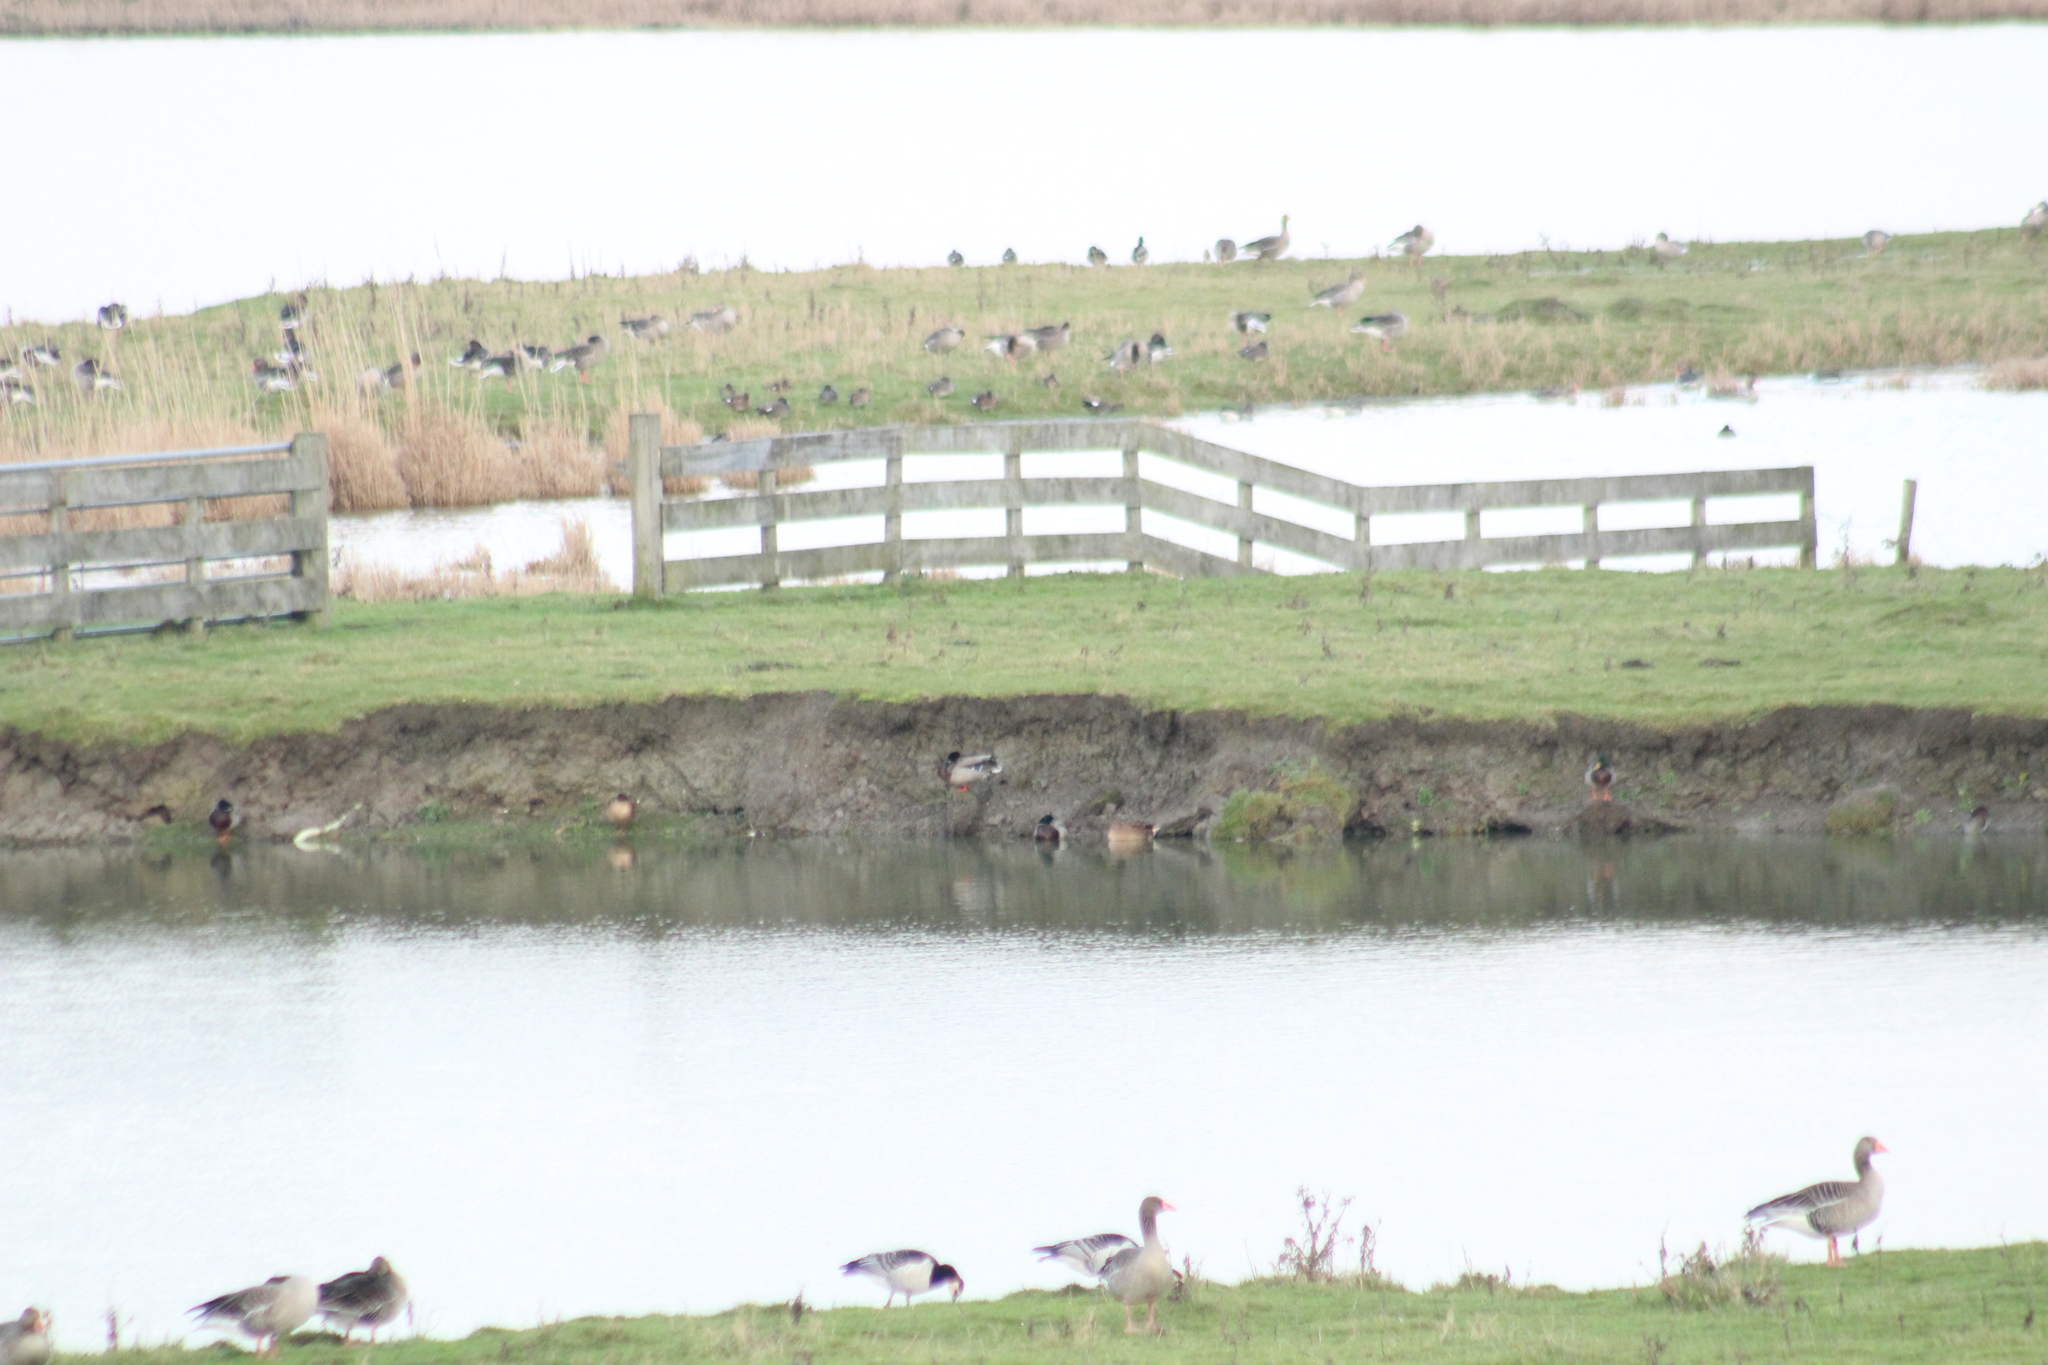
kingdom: Animalia
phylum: Chordata
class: Aves
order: Anseriformes
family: Anatidae
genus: Anas
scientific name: Anas platyrhynchos
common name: Mallard
